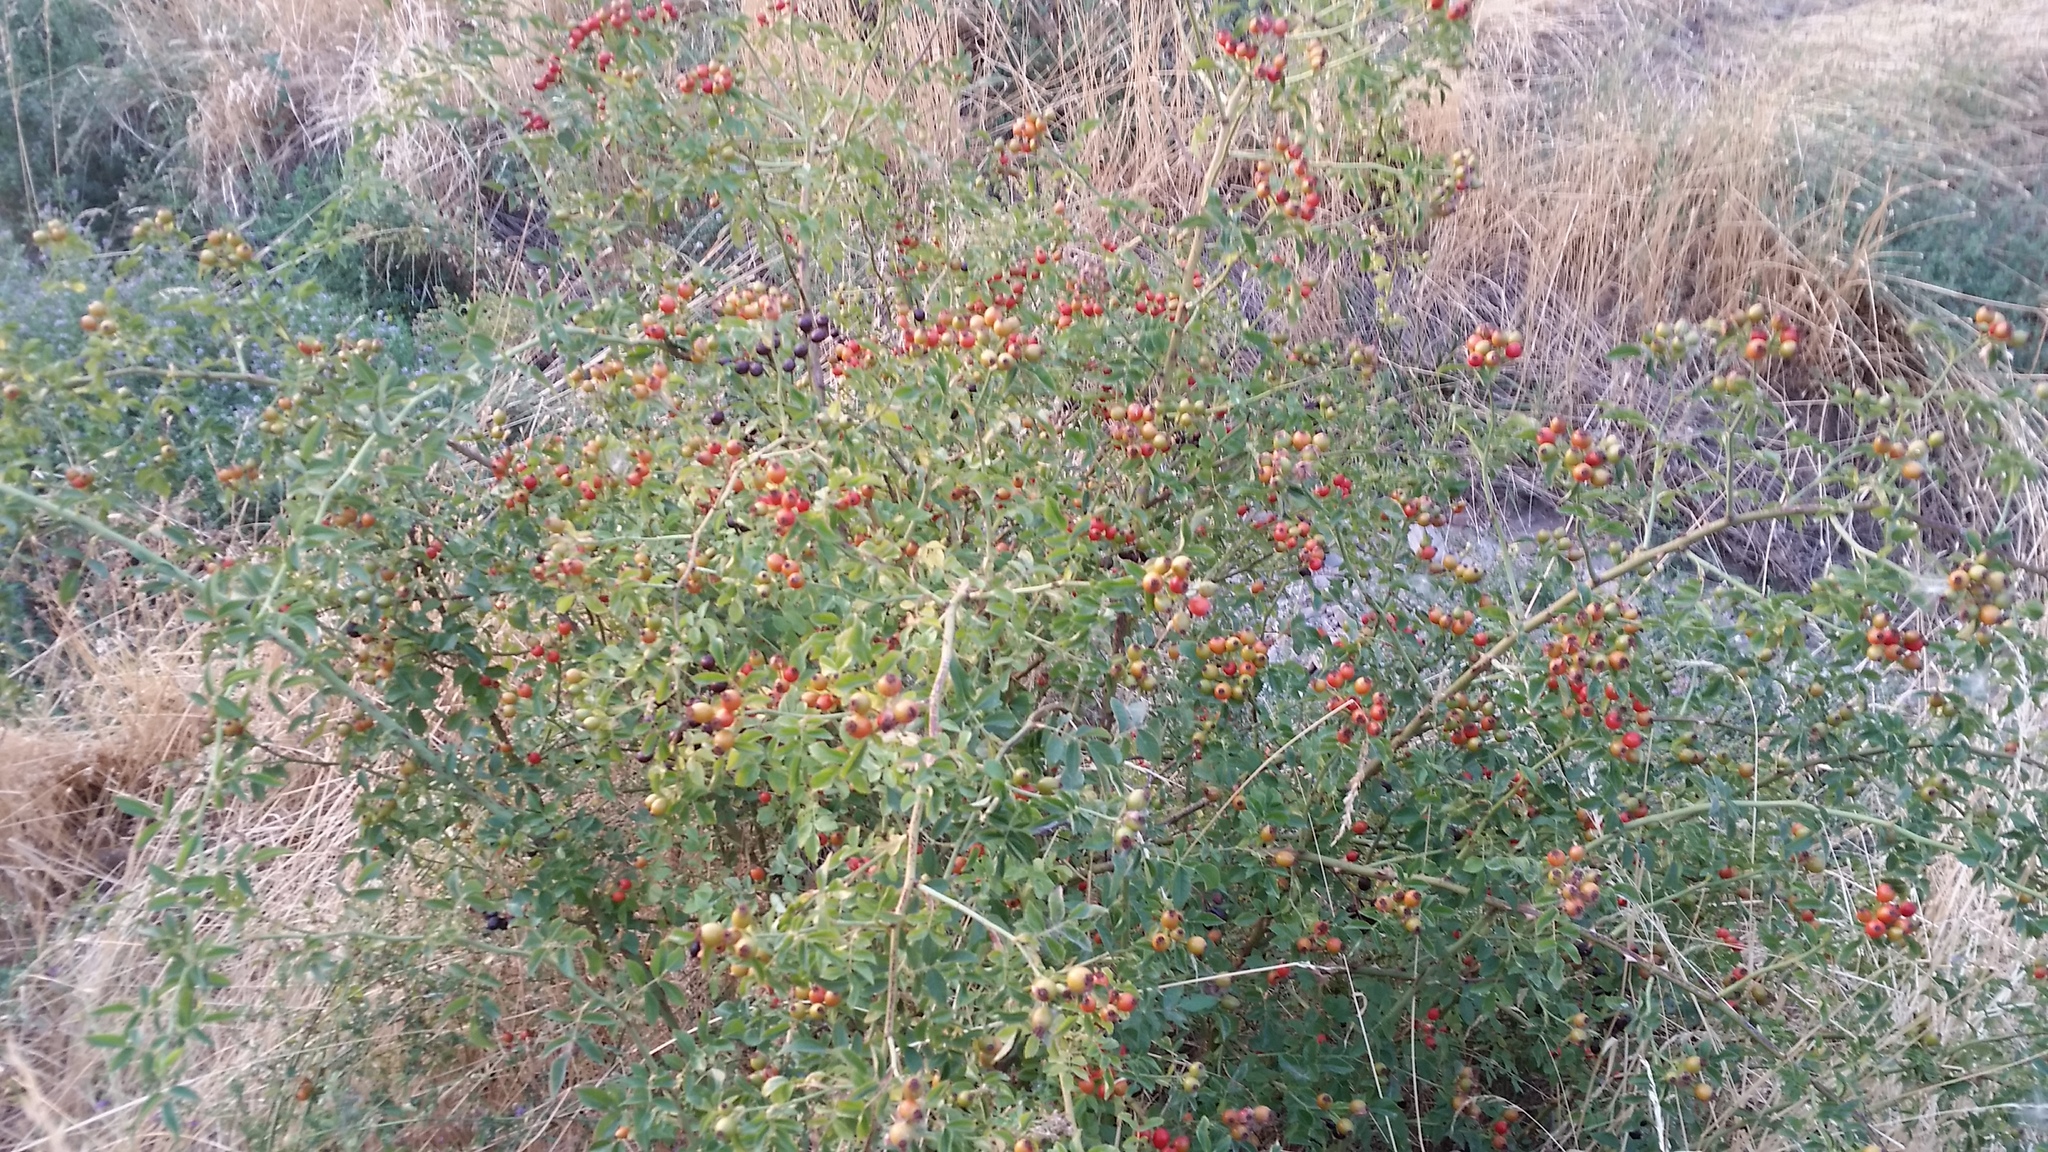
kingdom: Plantae
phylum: Tracheophyta
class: Magnoliopsida
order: Rosales
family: Rosaceae
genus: Rosa
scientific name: Rosa canina
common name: Dog rose
